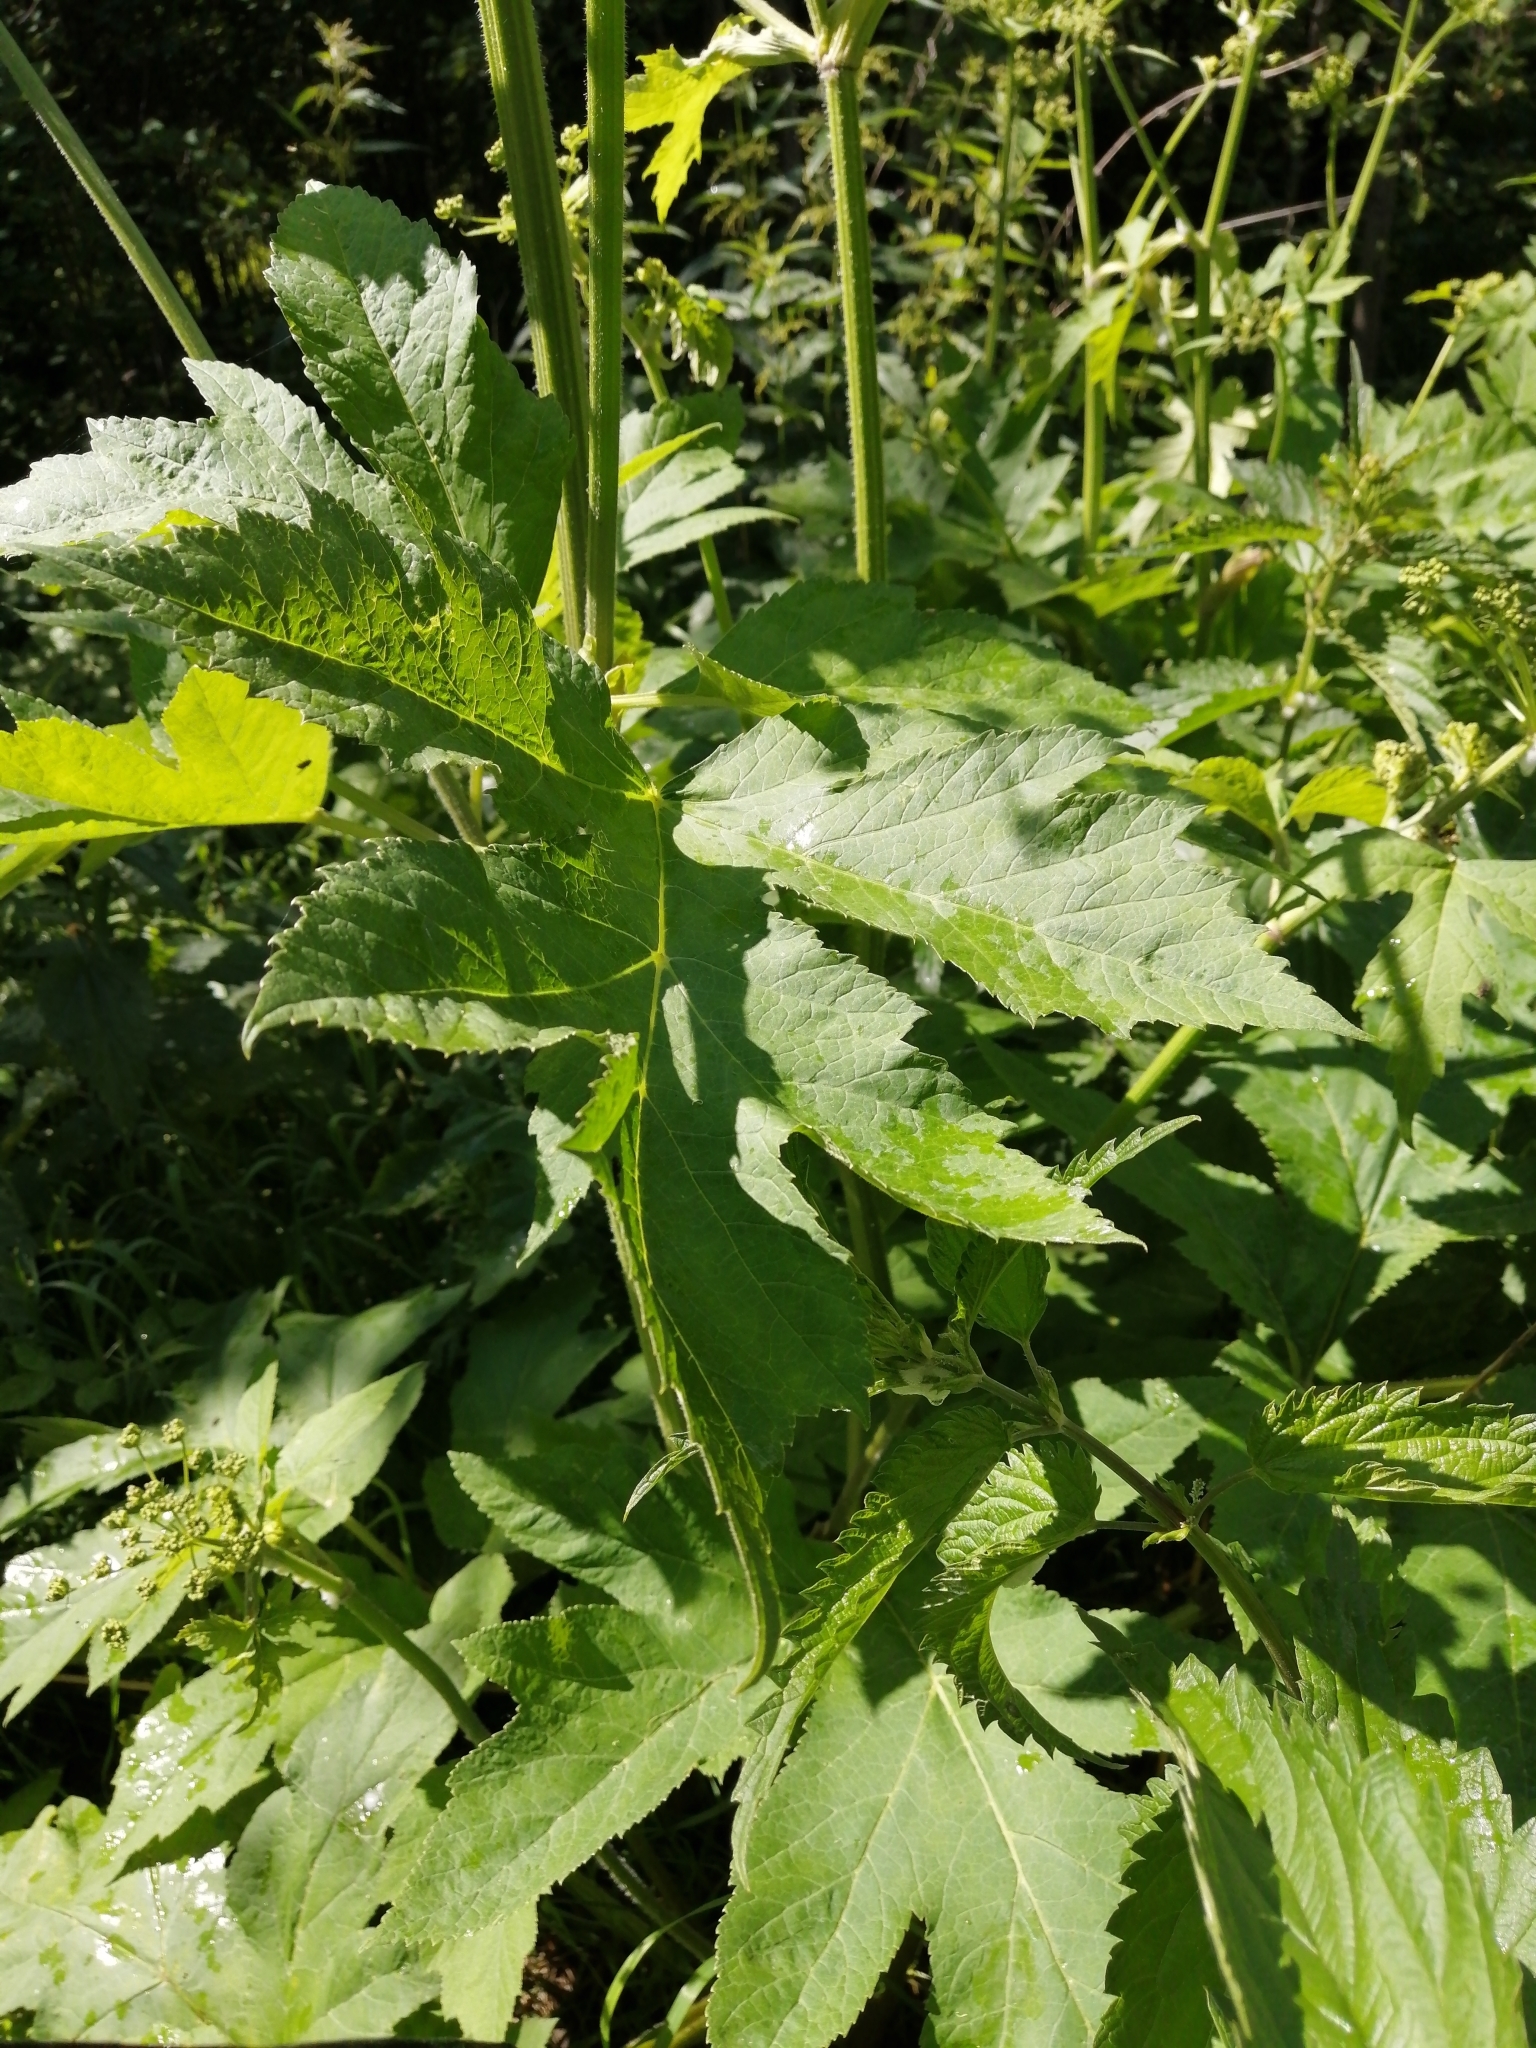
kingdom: Plantae
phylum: Tracheophyta
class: Magnoliopsida
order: Apiales
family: Apiaceae
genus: Heracleum
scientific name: Heracleum sphondylium
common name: Hogweed
